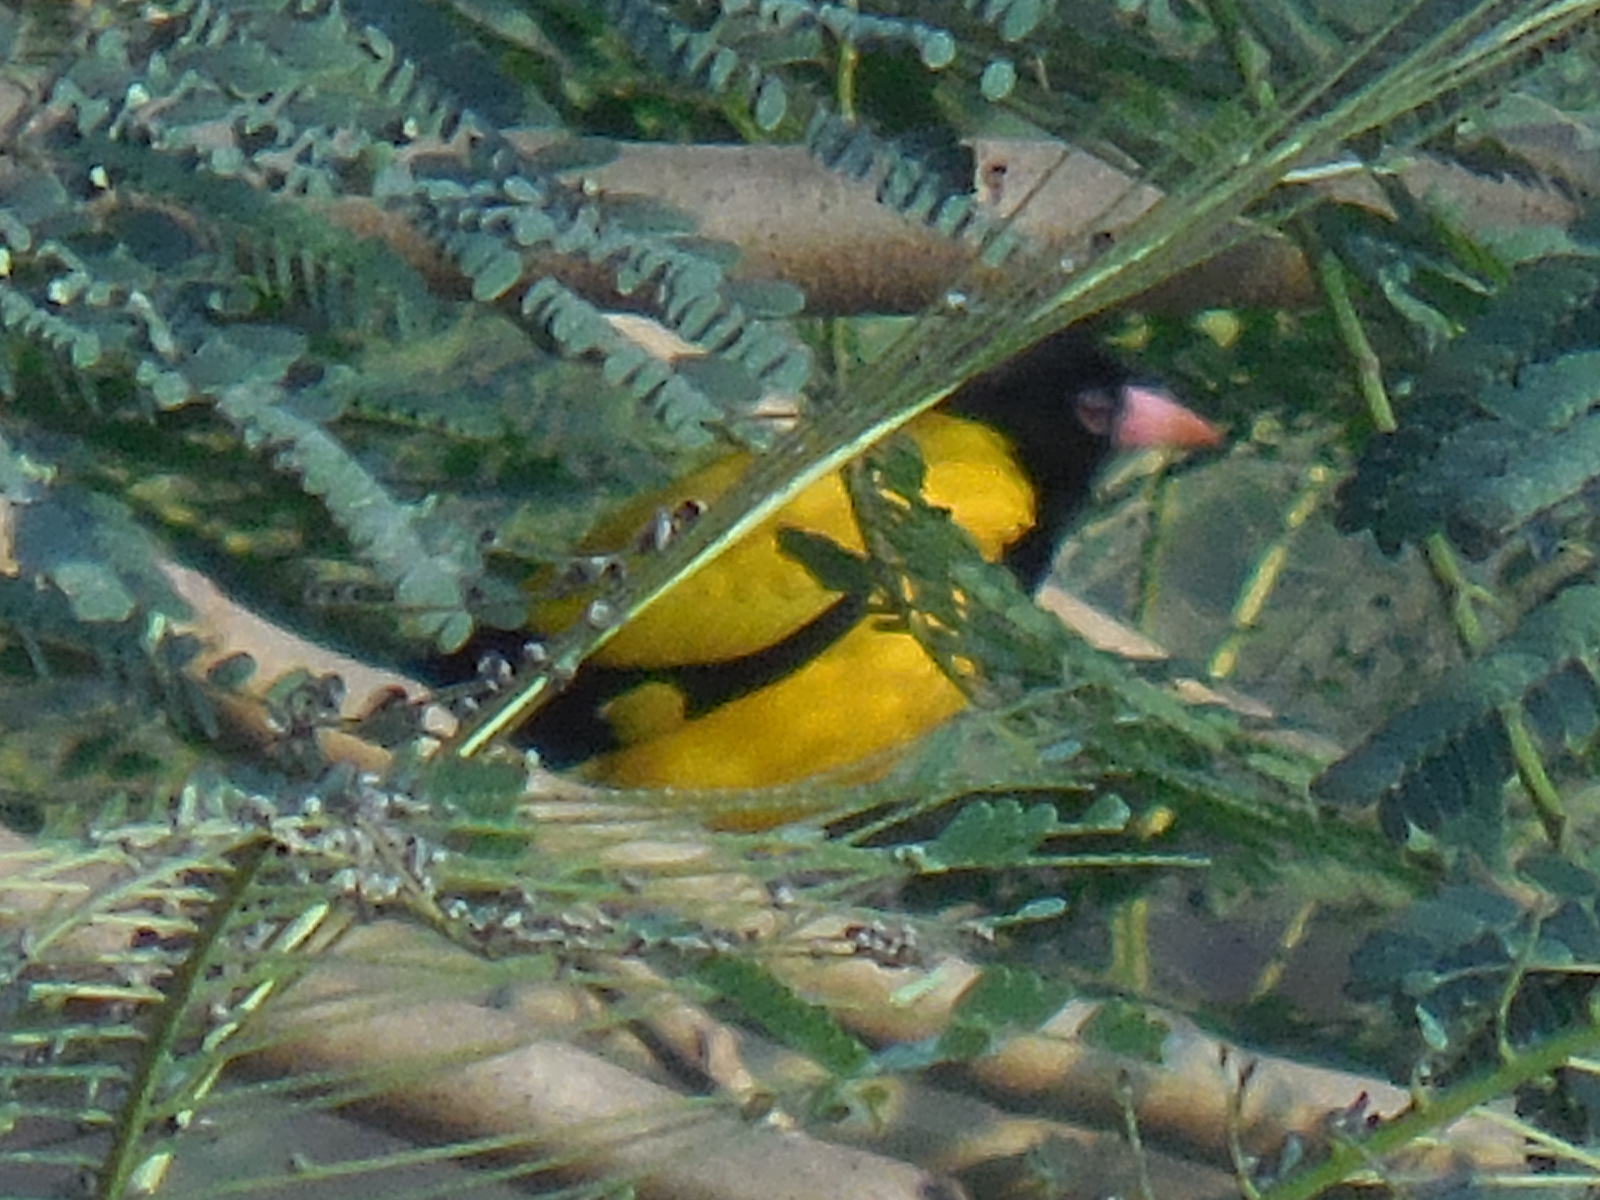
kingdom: Animalia
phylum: Chordata
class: Aves
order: Passeriformes
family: Oriolidae
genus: Oriolus
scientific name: Oriolus xanthornus
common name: Black-hooded oriole
